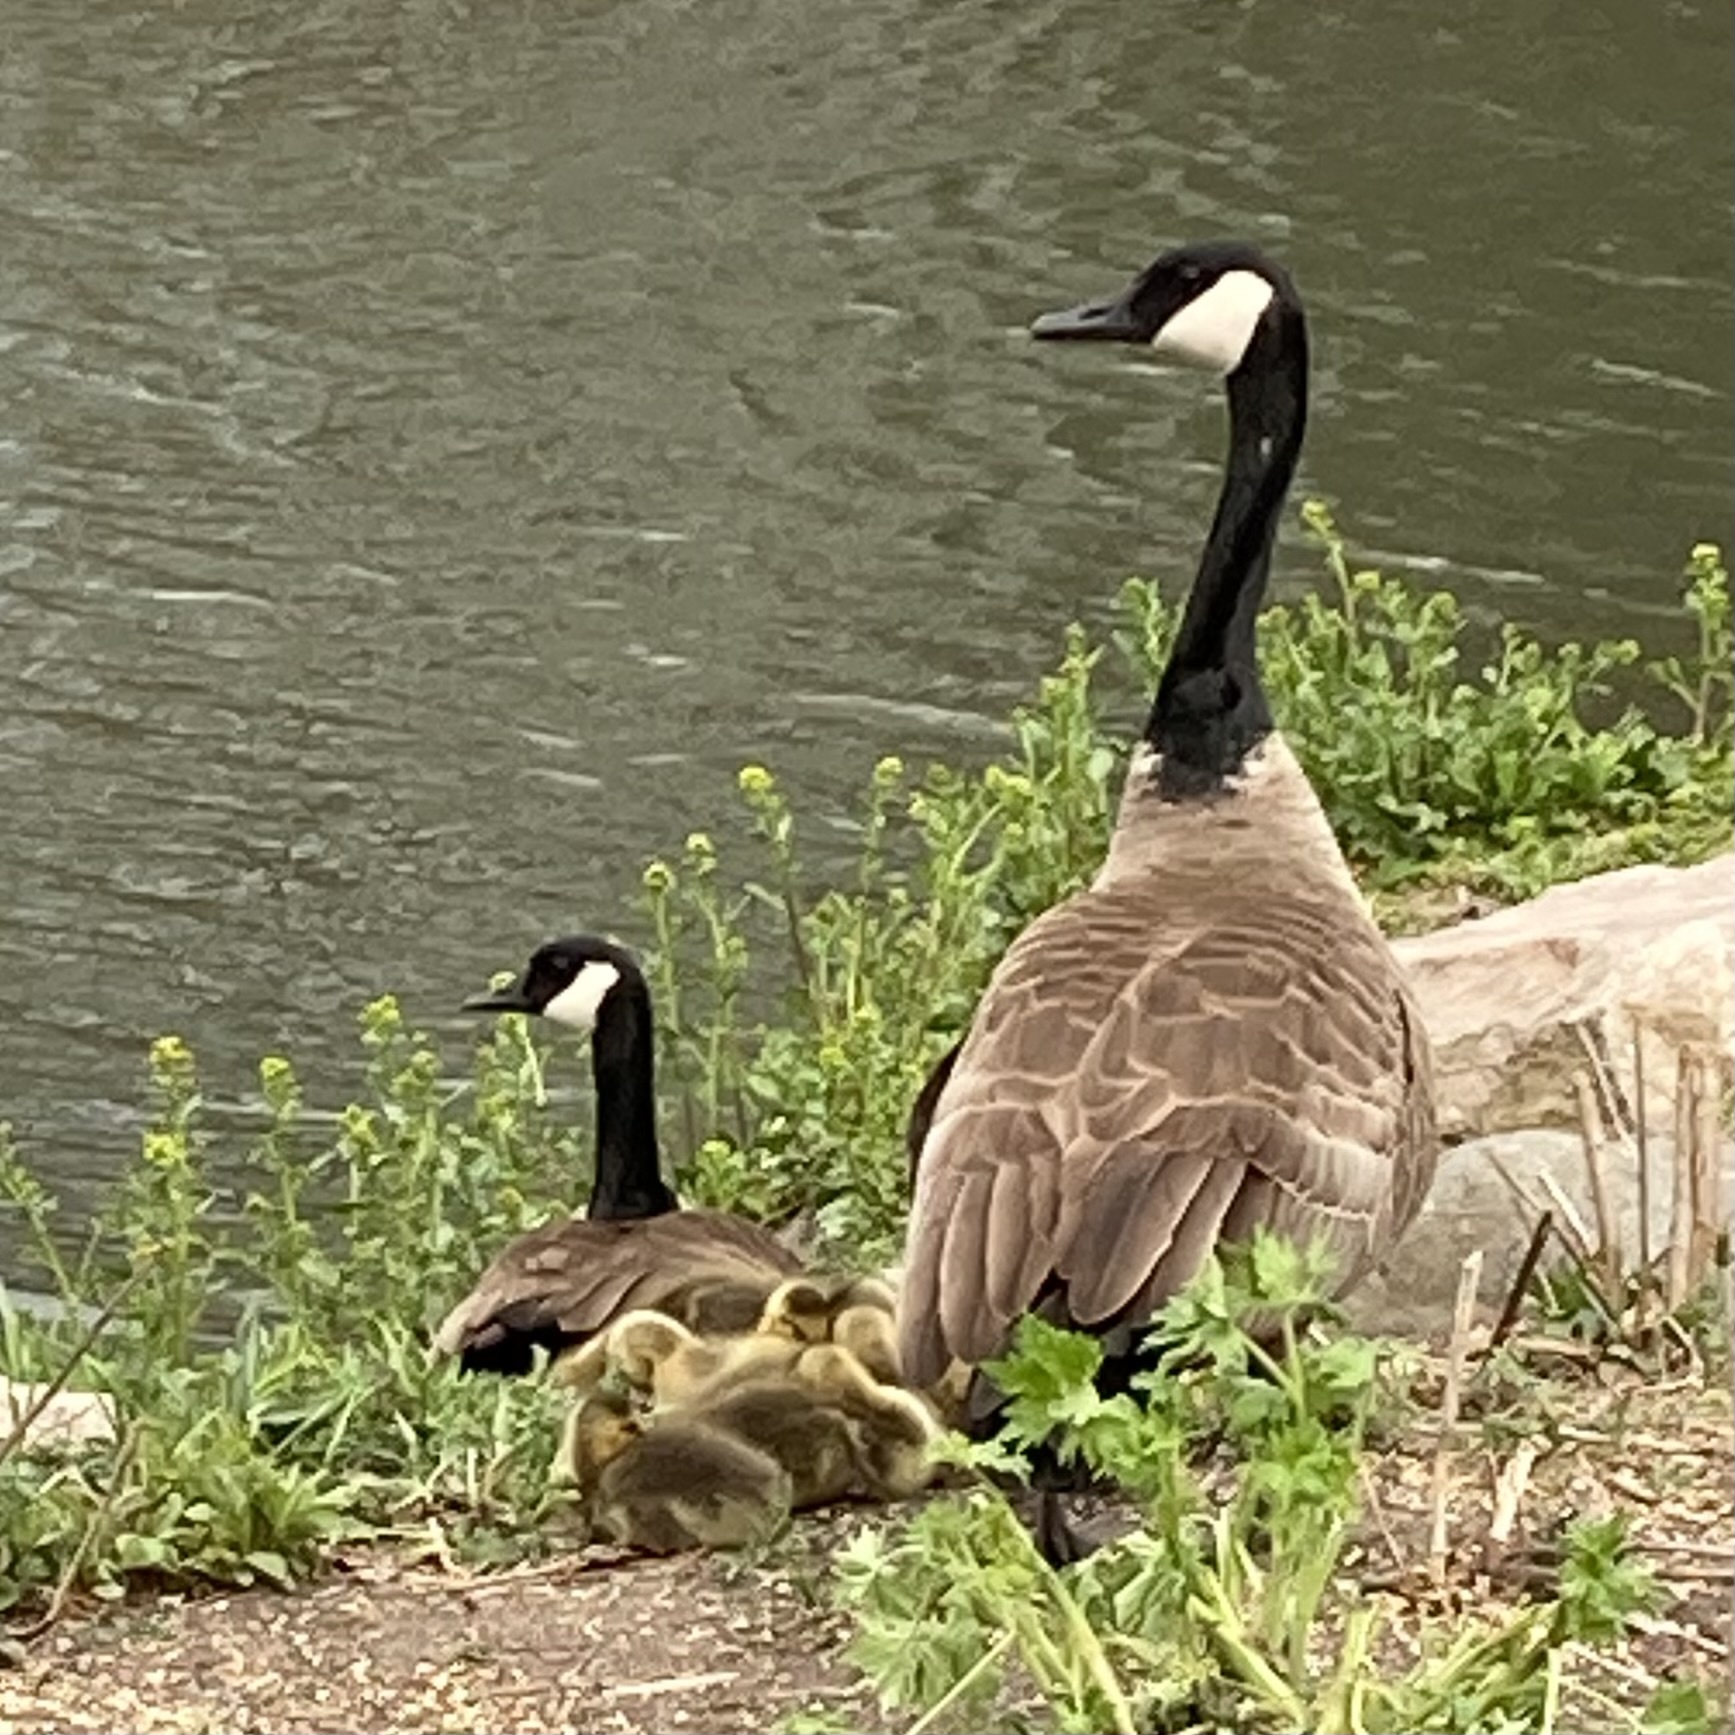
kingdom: Animalia
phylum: Chordata
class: Aves
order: Anseriformes
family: Anatidae
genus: Branta
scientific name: Branta canadensis
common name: Canada goose
